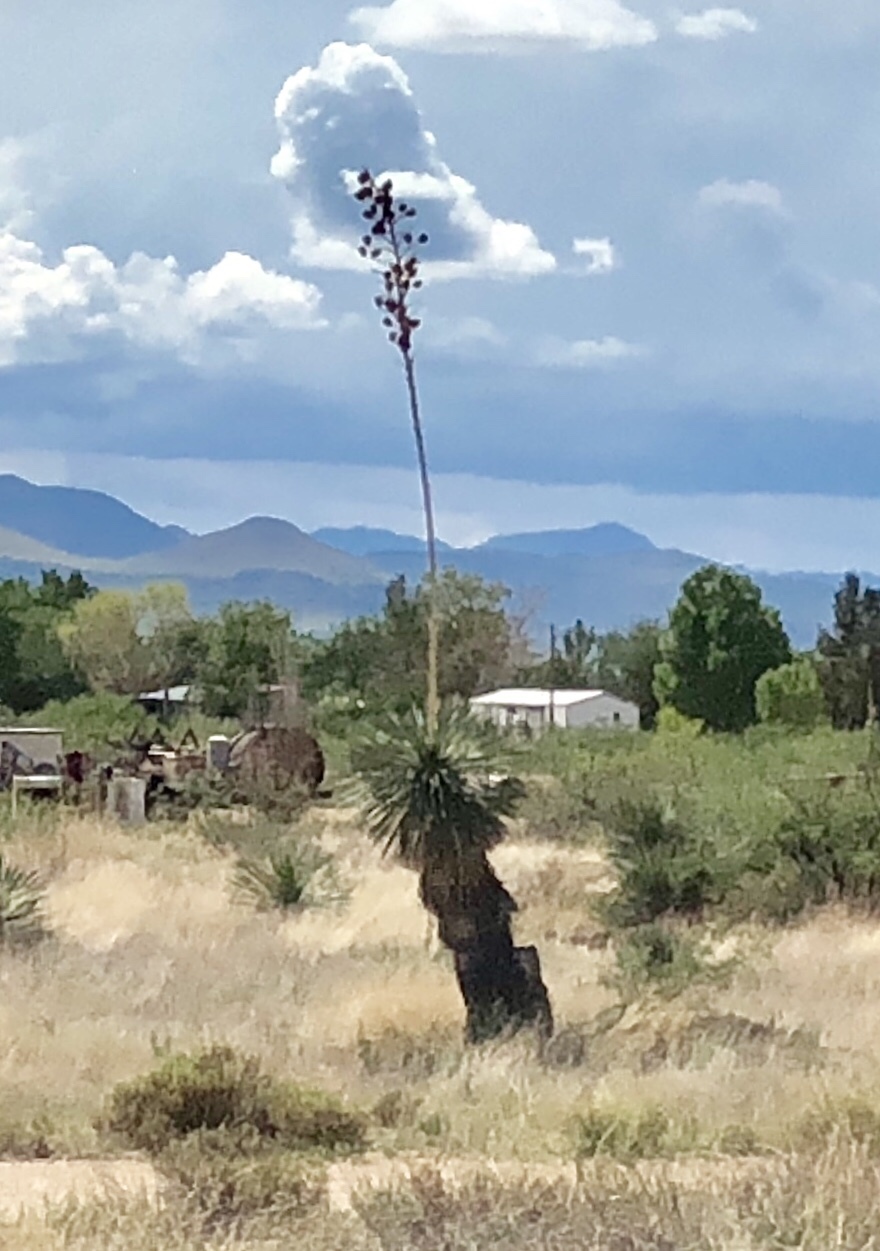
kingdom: Plantae
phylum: Tracheophyta
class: Liliopsida
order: Asparagales
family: Asparagaceae
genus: Yucca
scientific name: Yucca elata
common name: Palmella
